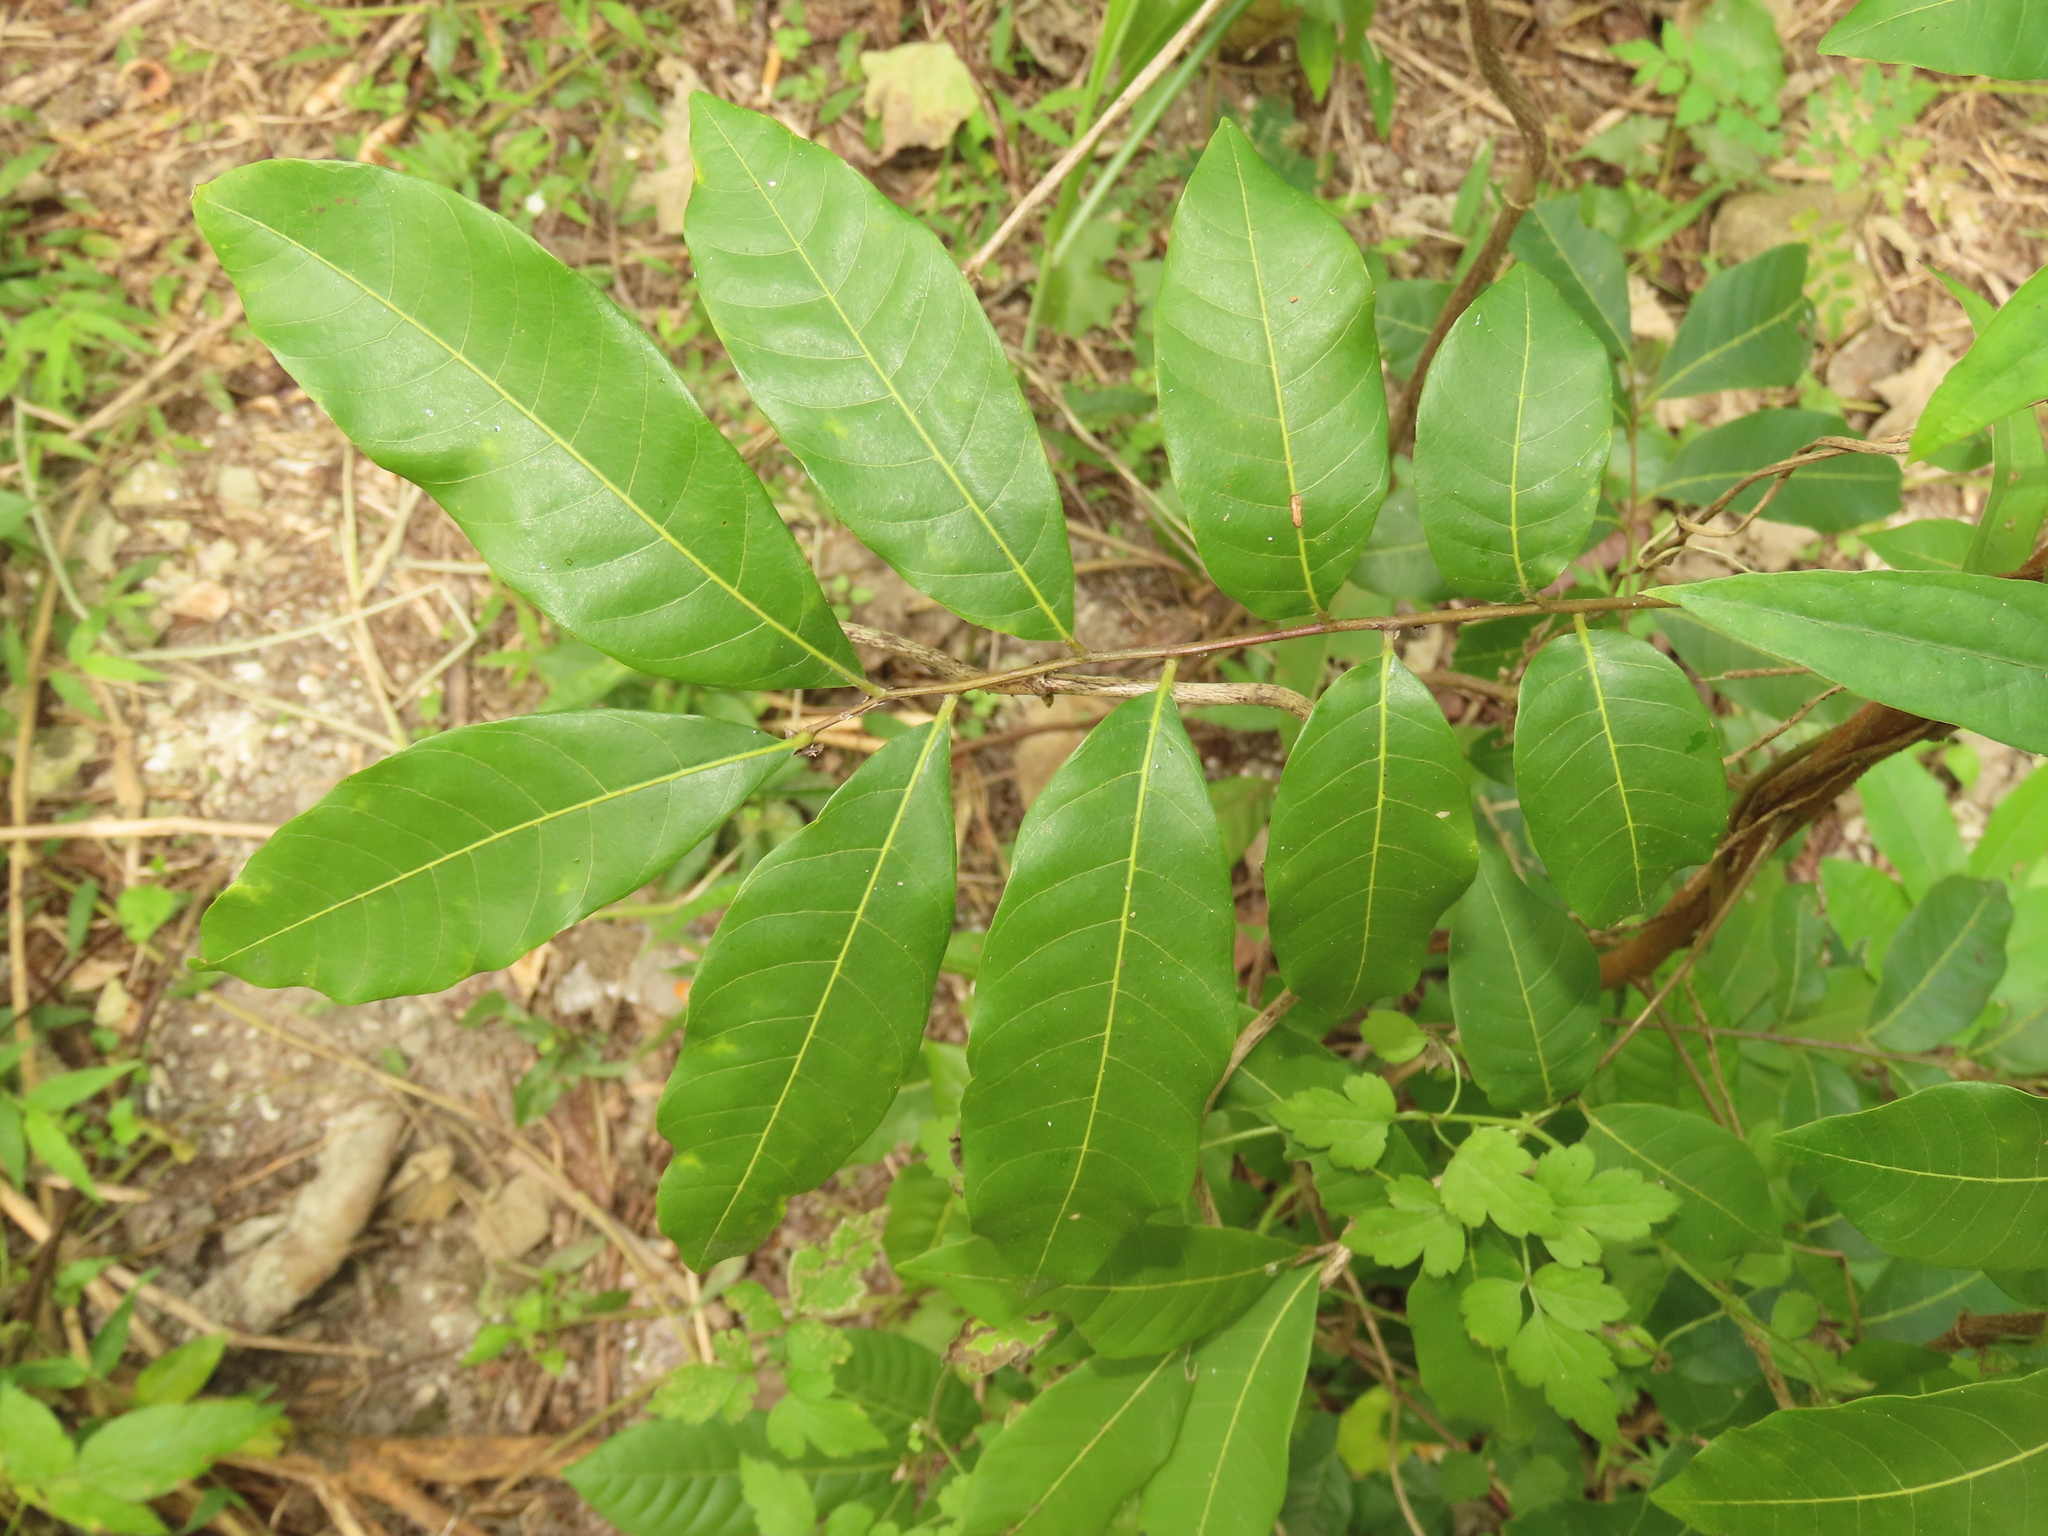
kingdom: Plantae
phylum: Tracheophyta
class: Magnoliopsida
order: Sapindales
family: Sapindaceae
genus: Dimocarpus
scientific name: Dimocarpus longan
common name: Longan
